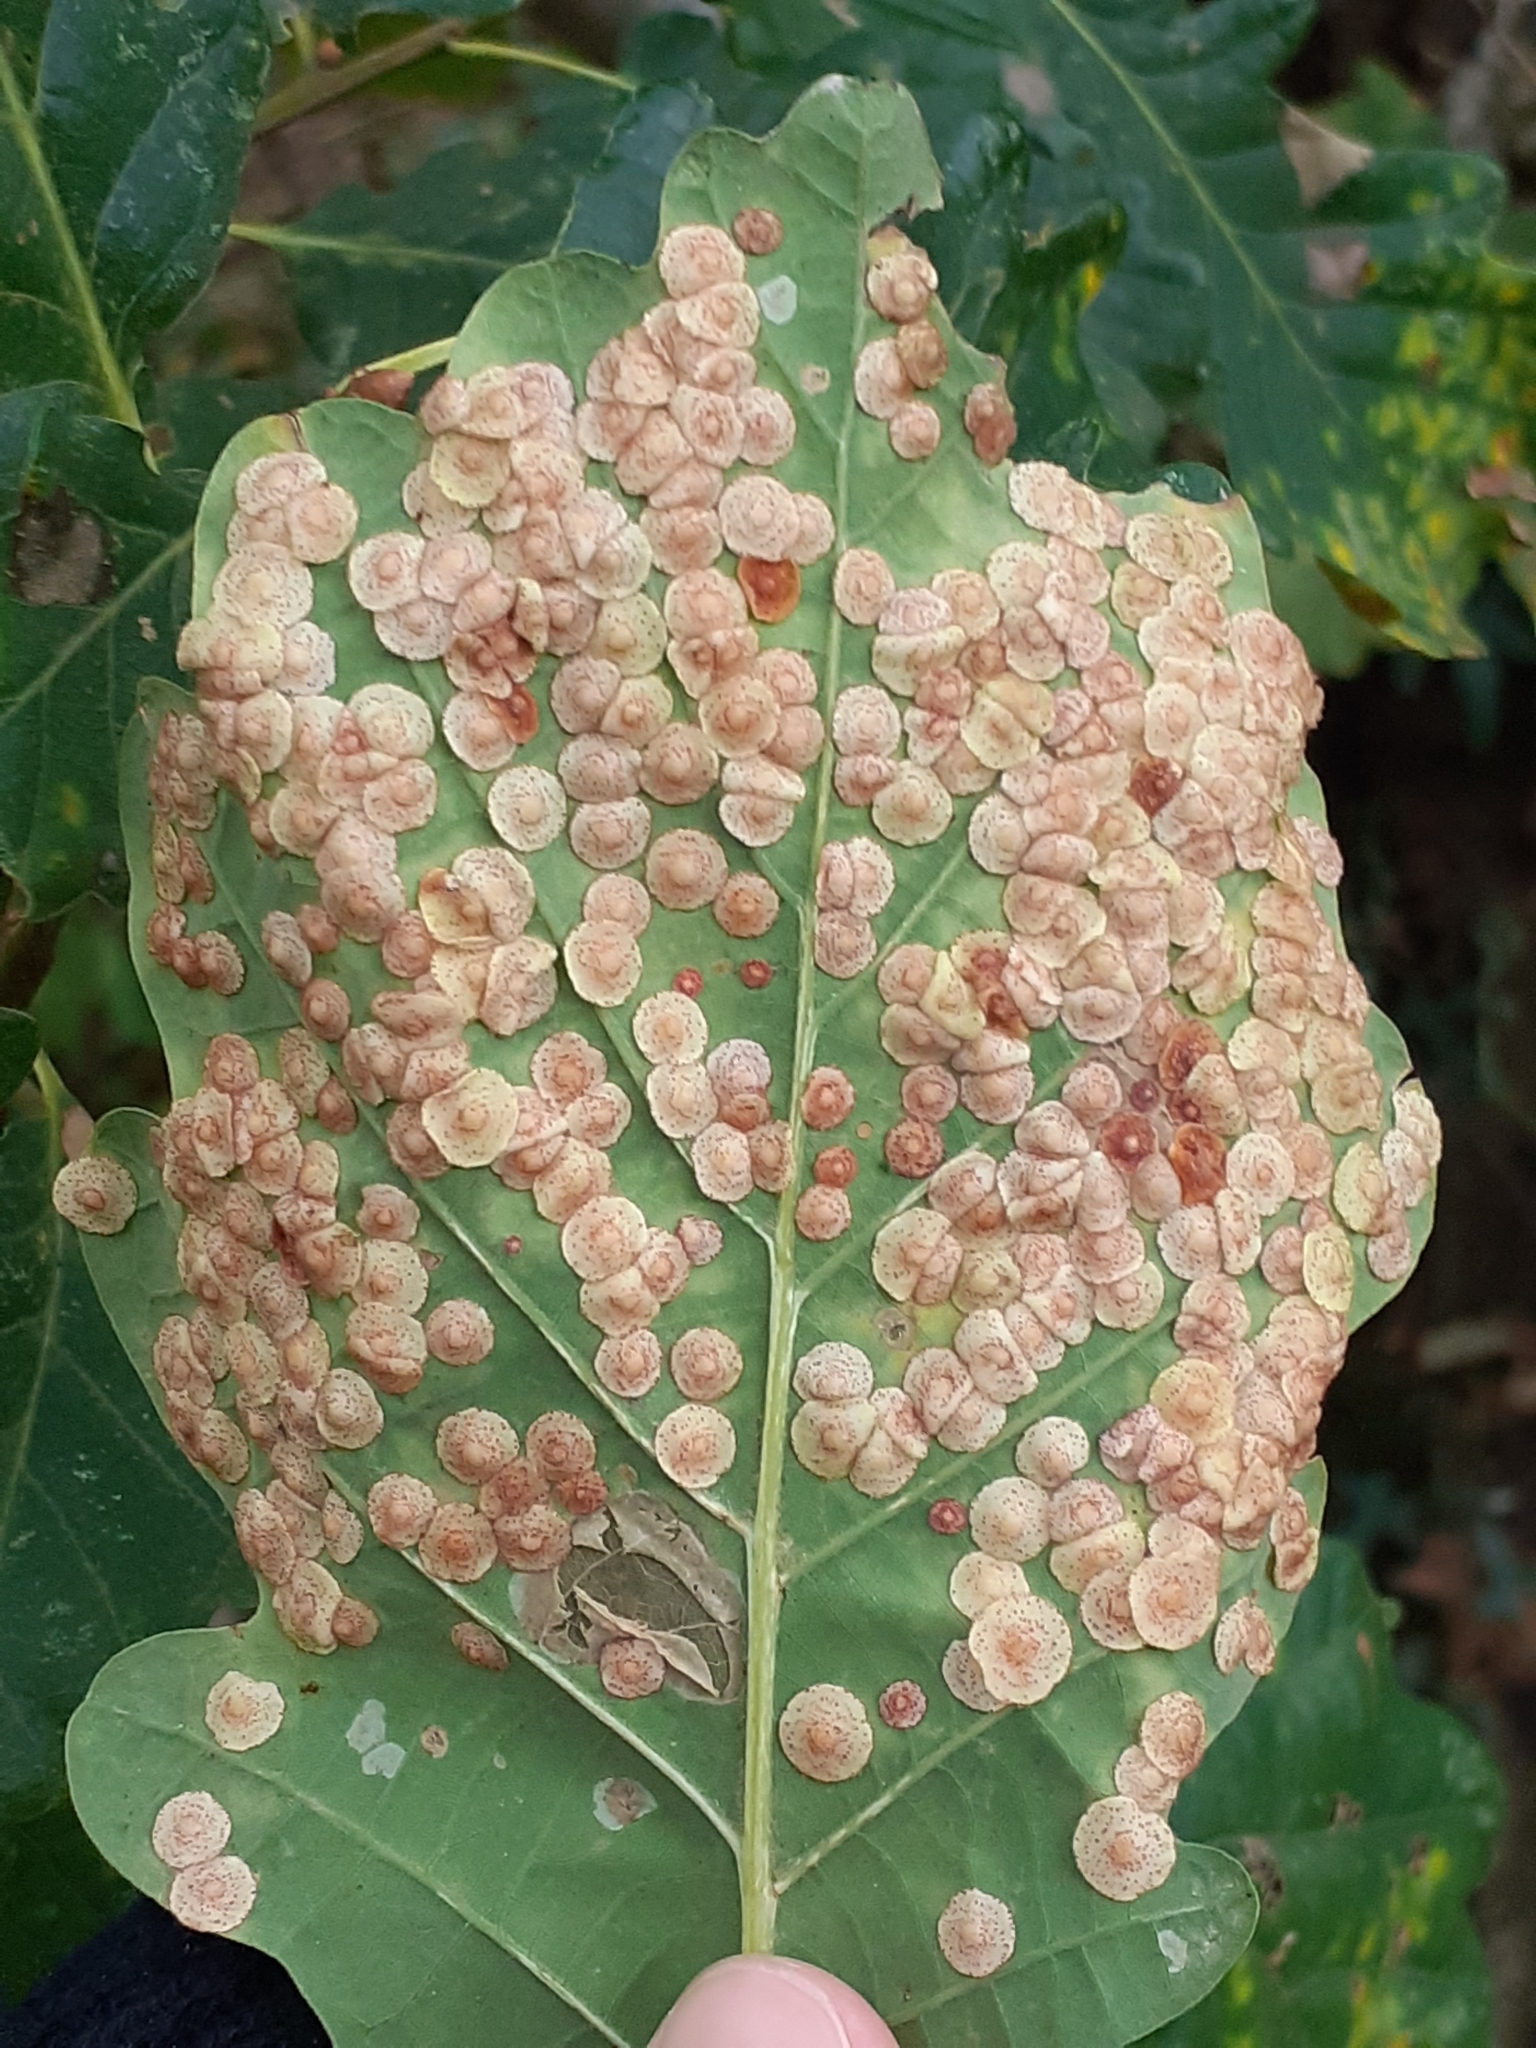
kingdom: Animalia
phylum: Arthropoda
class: Insecta
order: Hymenoptera
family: Cynipidae
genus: Neuroterus
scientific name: Neuroterus quercusbaccarum
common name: Common spangle gall
